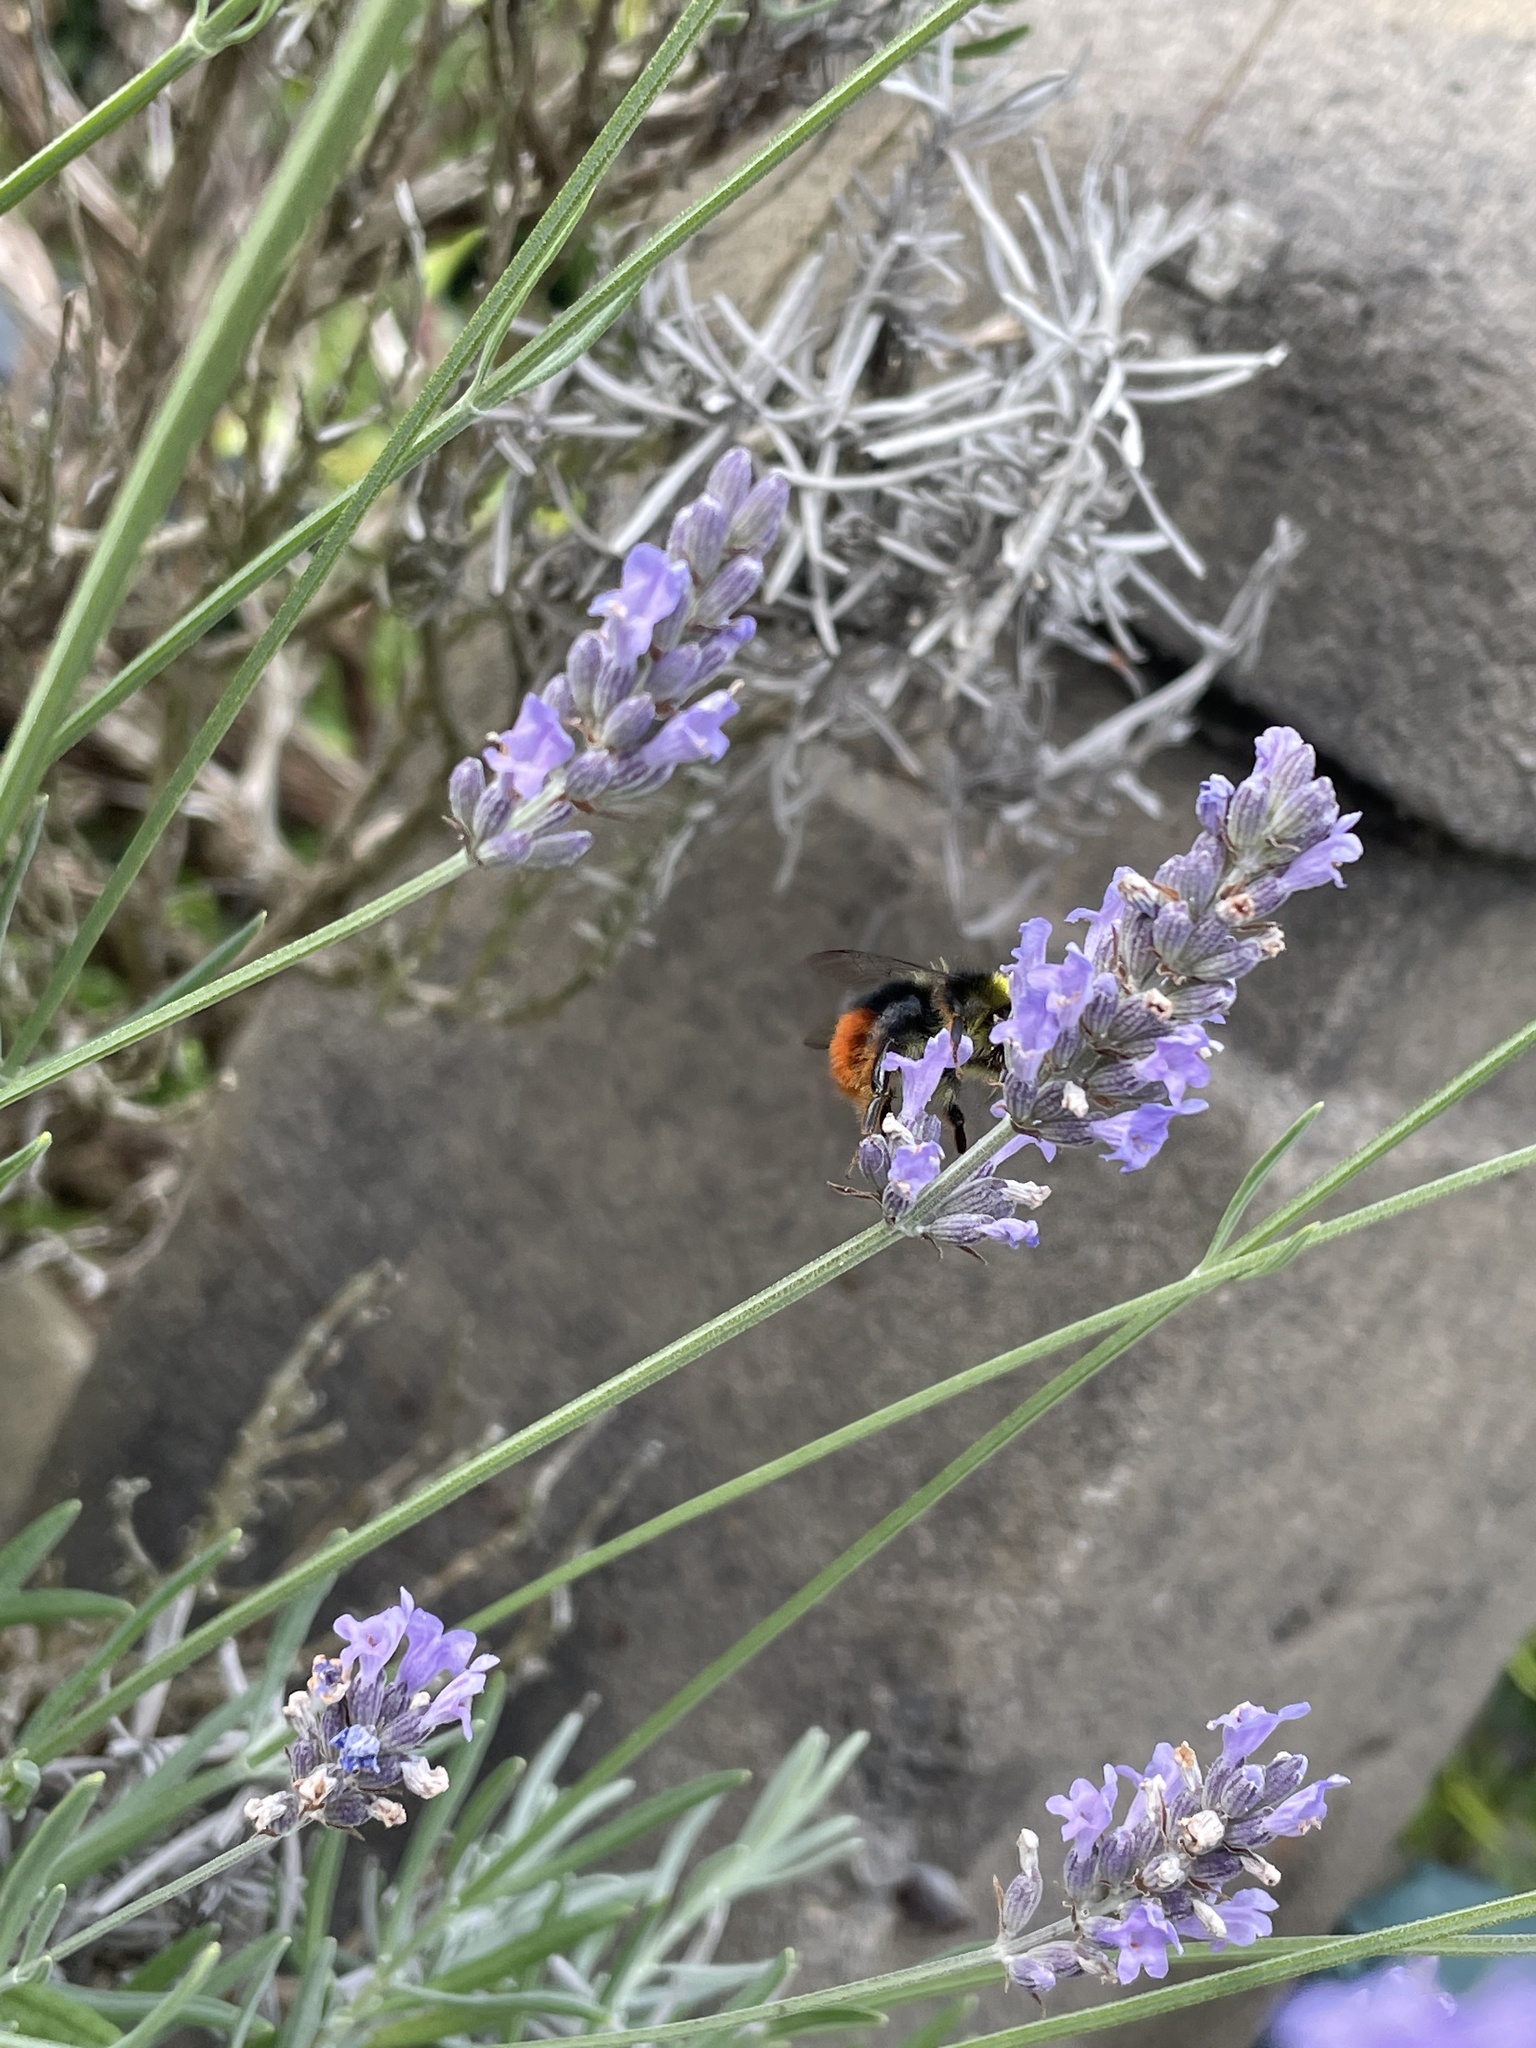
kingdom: Animalia
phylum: Arthropoda
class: Insecta
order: Hymenoptera
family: Apidae
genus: Bombus
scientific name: Bombus lapidarius
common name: Large red-tailed humble-bee
